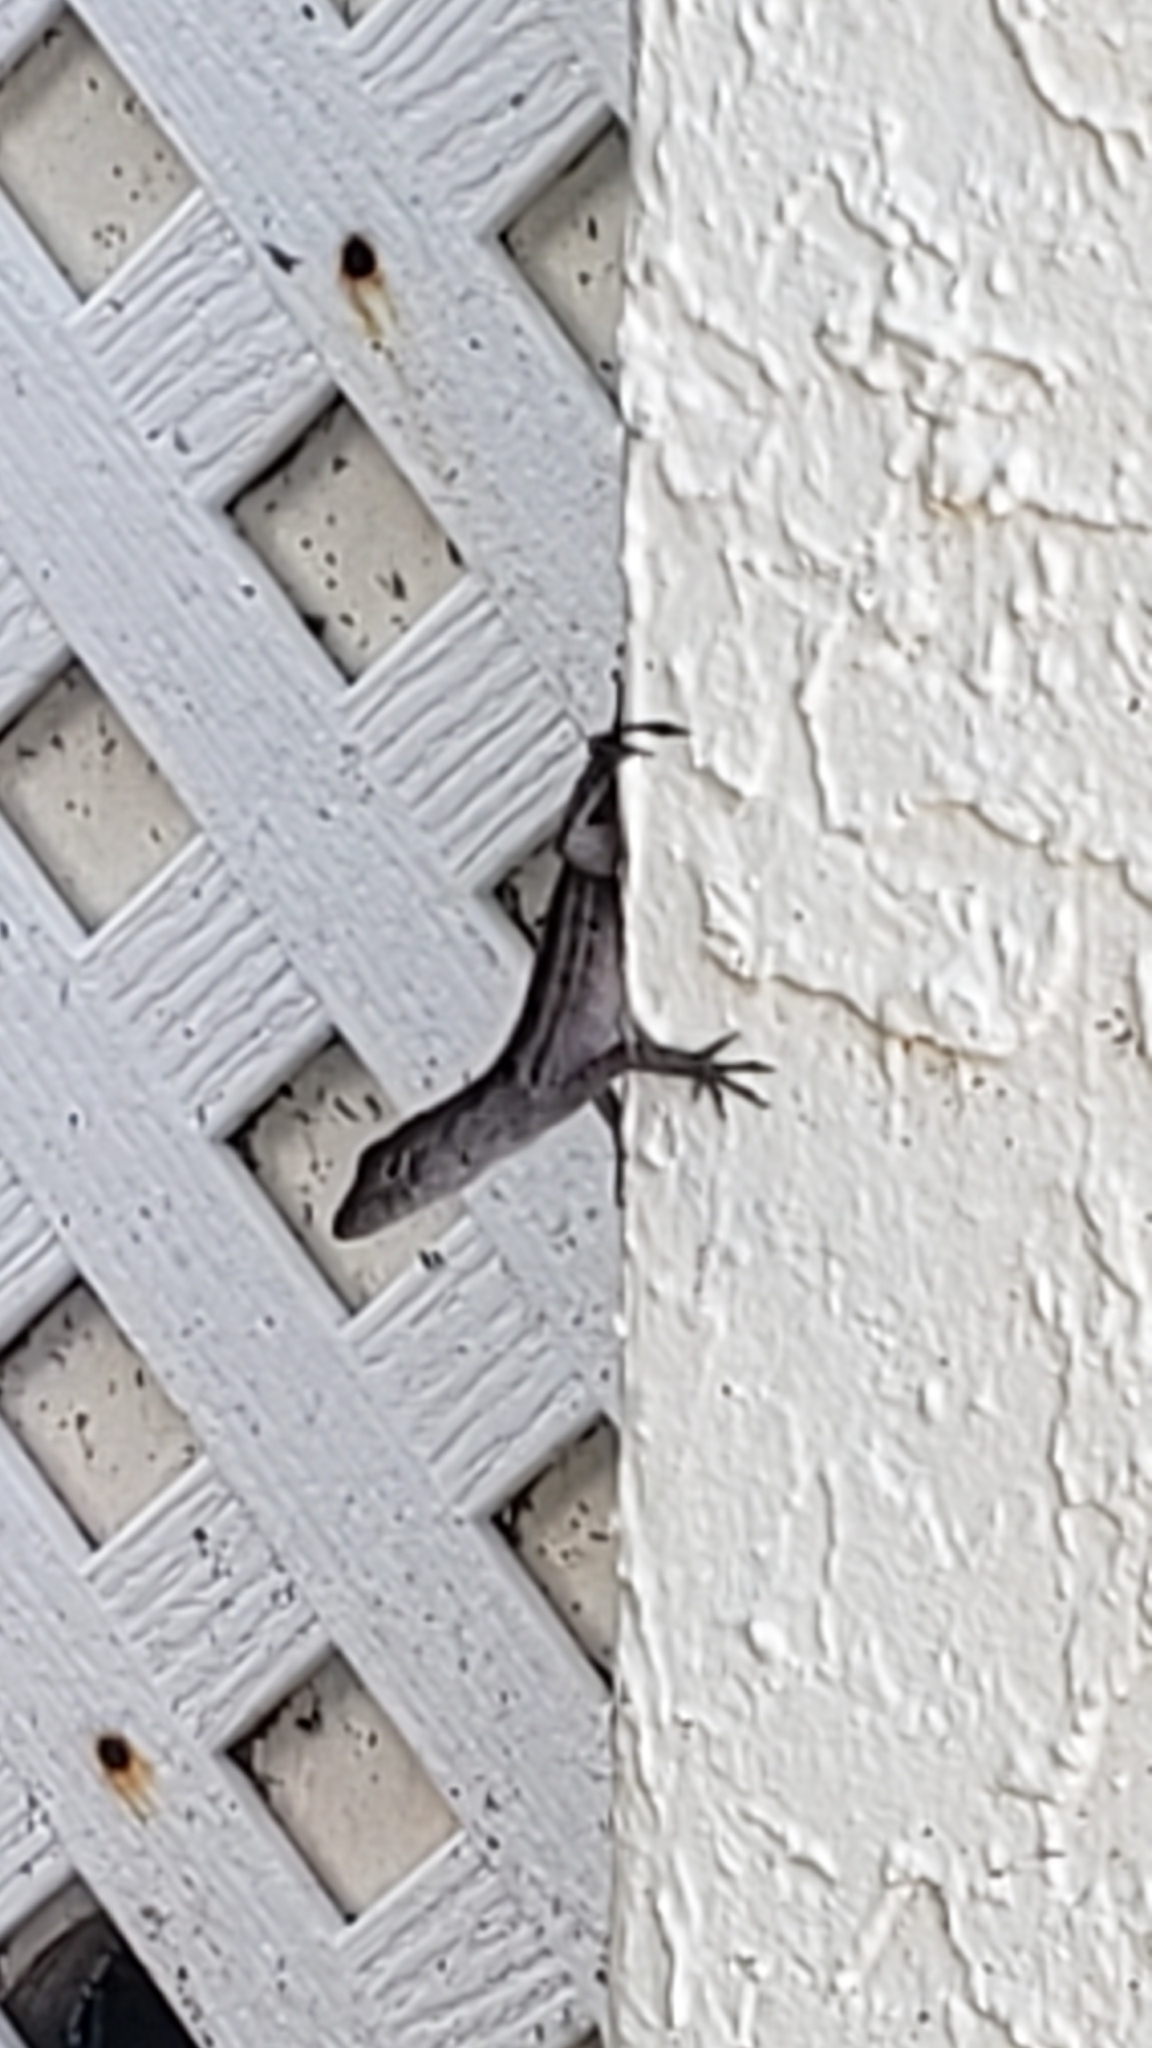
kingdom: Animalia
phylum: Chordata
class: Squamata
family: Dactyloidae
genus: Anolis
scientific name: Anolis sagrei
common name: Brown anole
